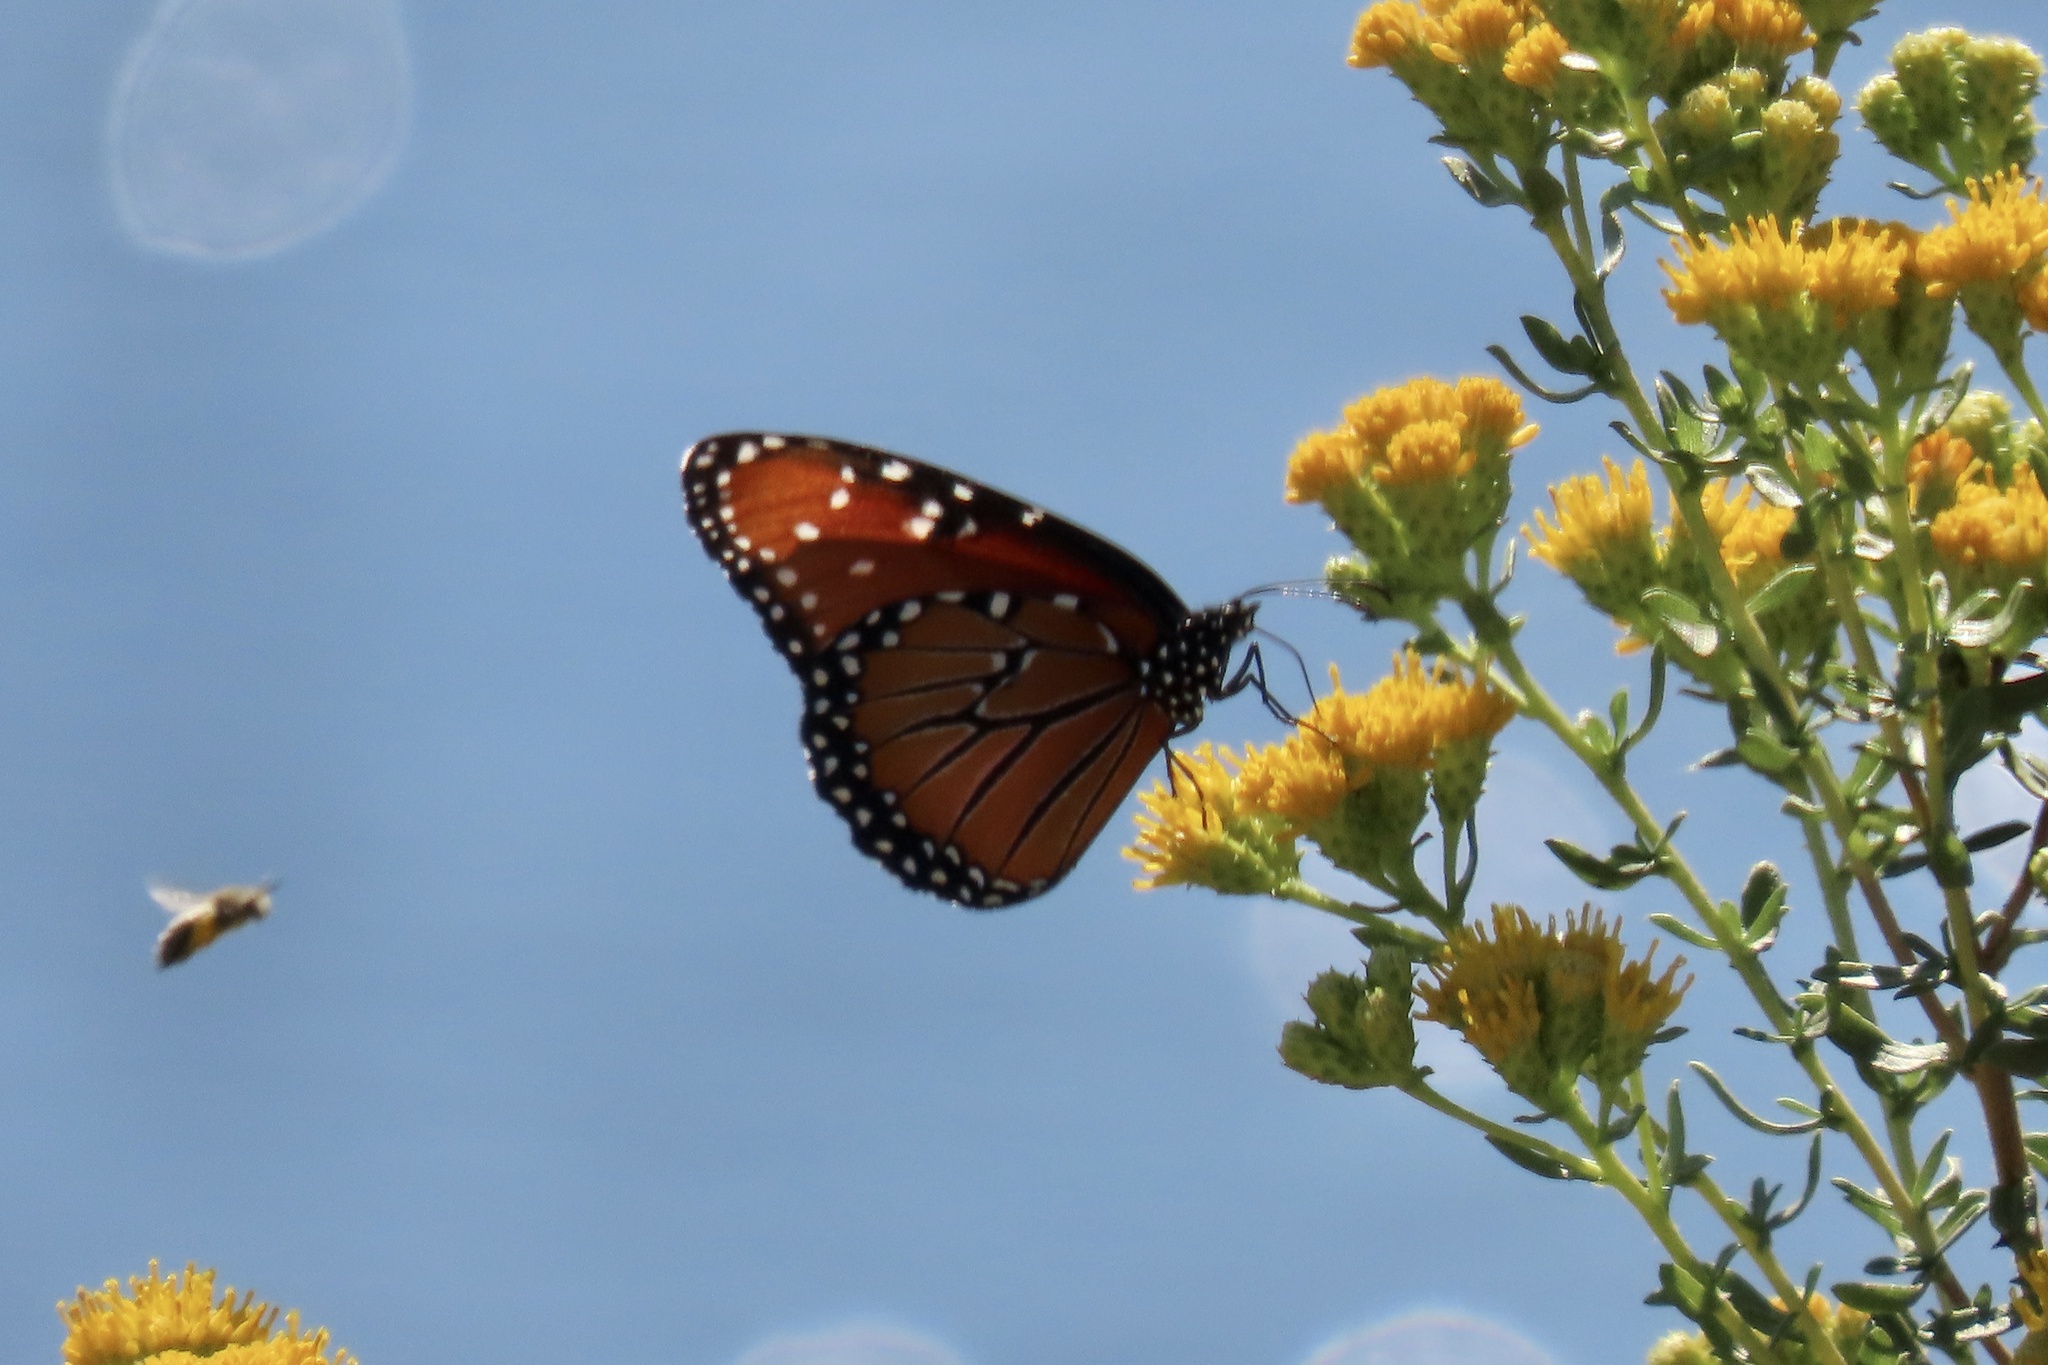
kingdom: Animalia
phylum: Arthropoda
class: Insecta
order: Lepidoptera
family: Nymphalidae
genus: Danaus
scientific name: Danaus gilippus
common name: Queen
